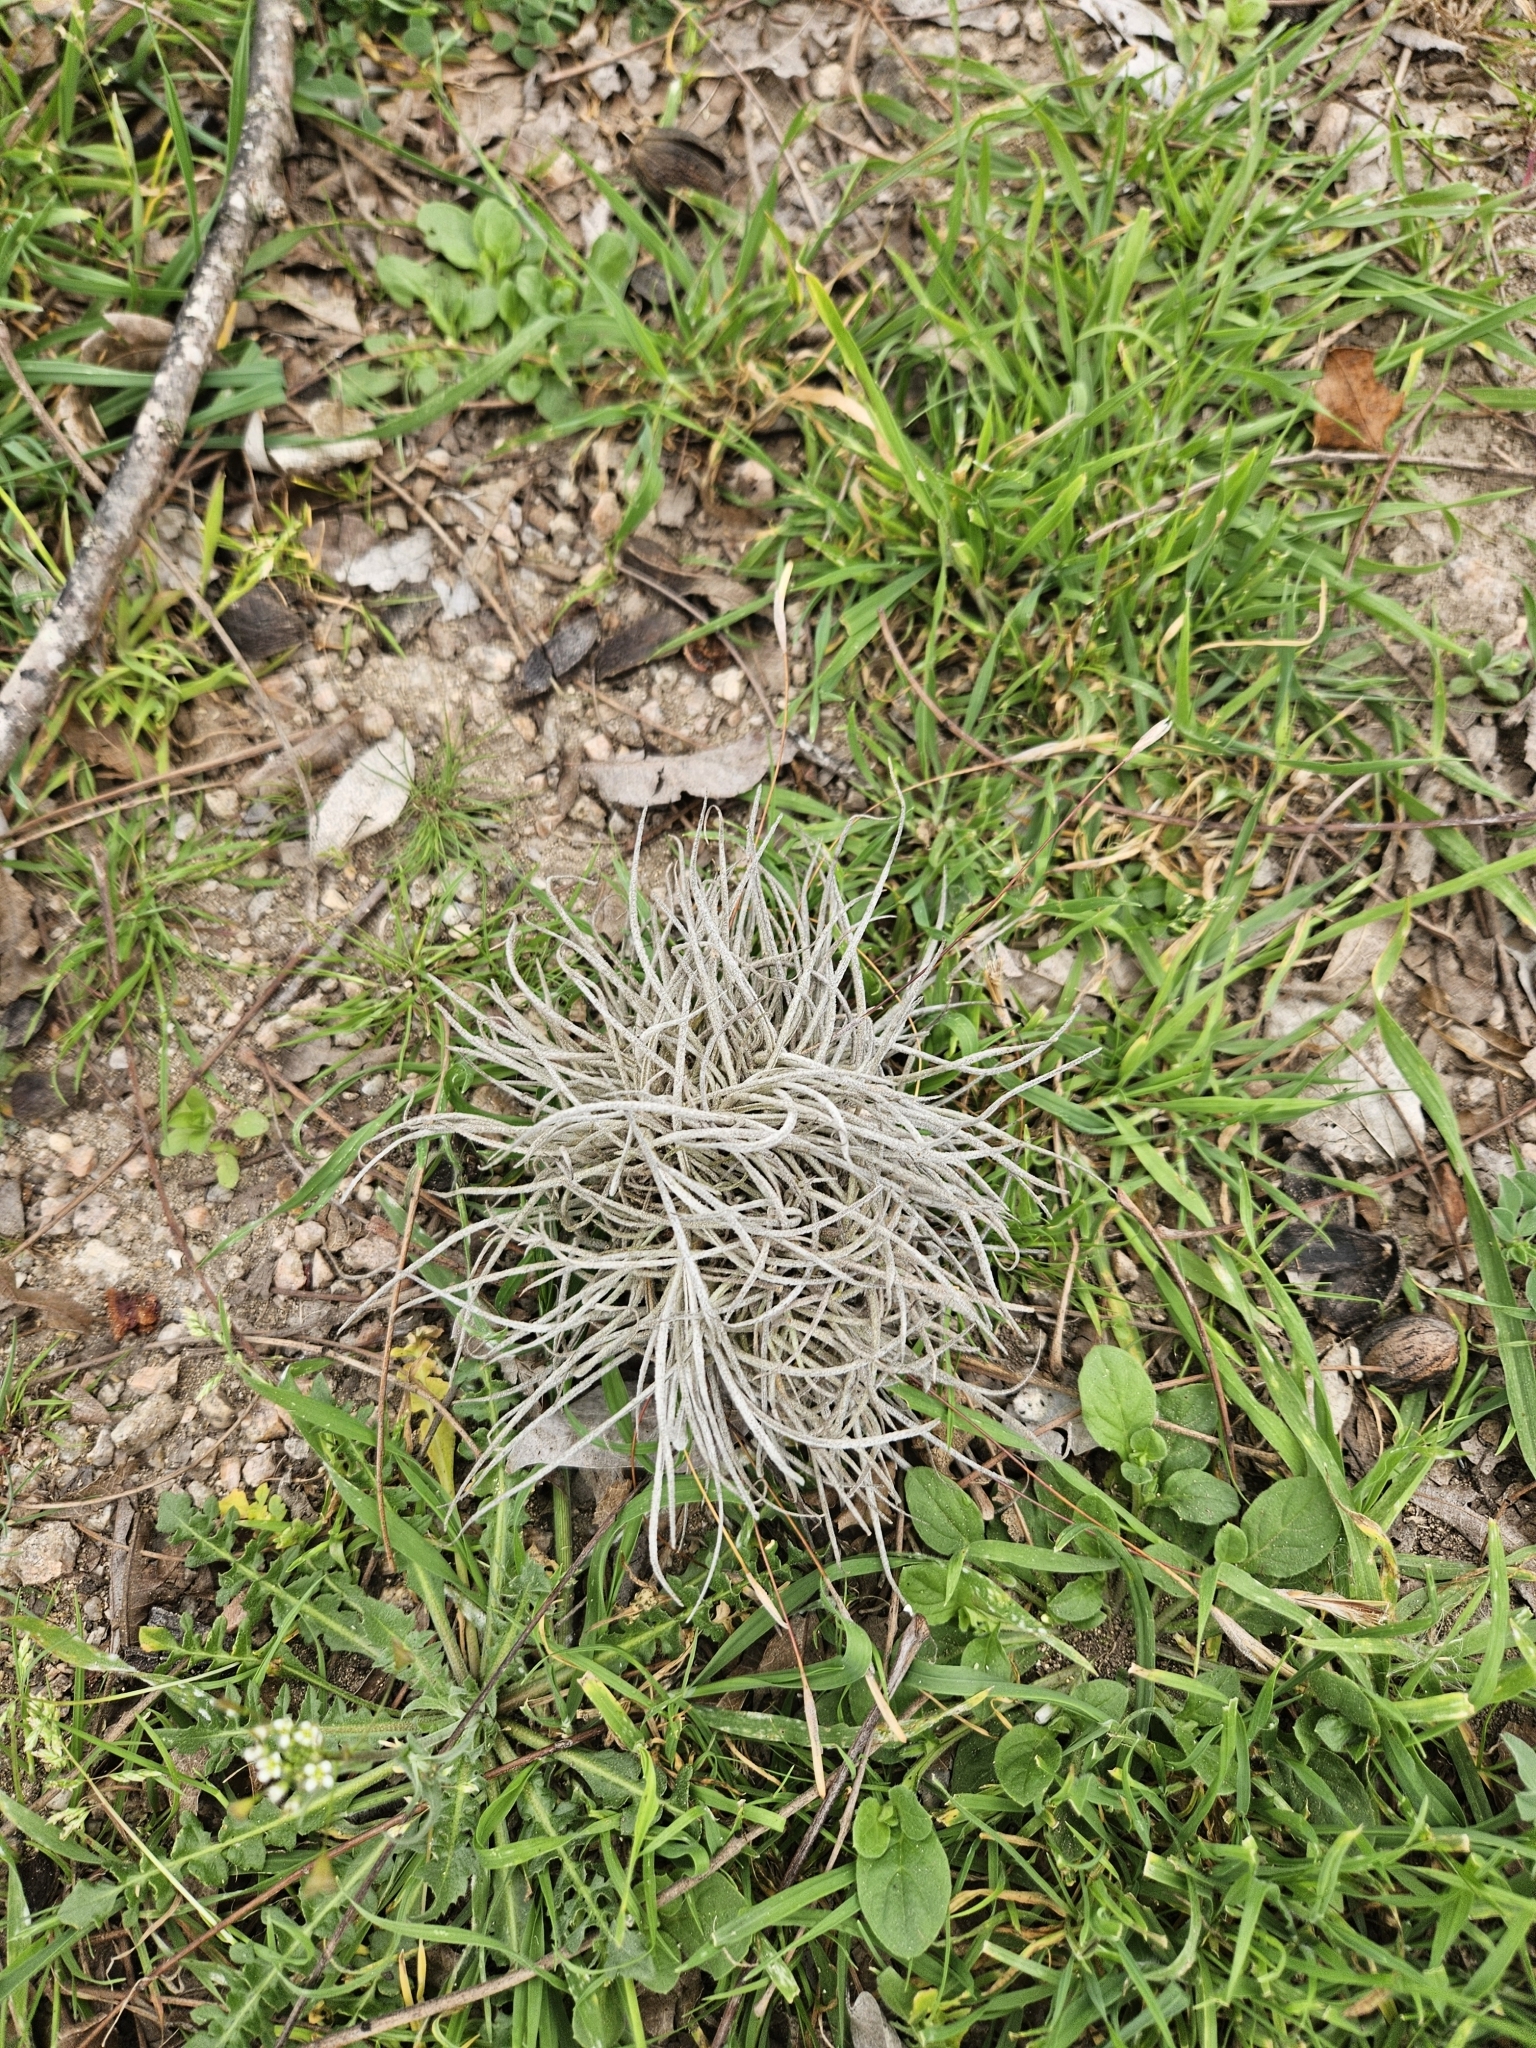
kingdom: Plantae
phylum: Tracheophyta
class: Liliopsida
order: Poales
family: Bromeliaceae
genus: Tillandsia
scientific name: Tillandsia recurvata
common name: Small ballmoss
